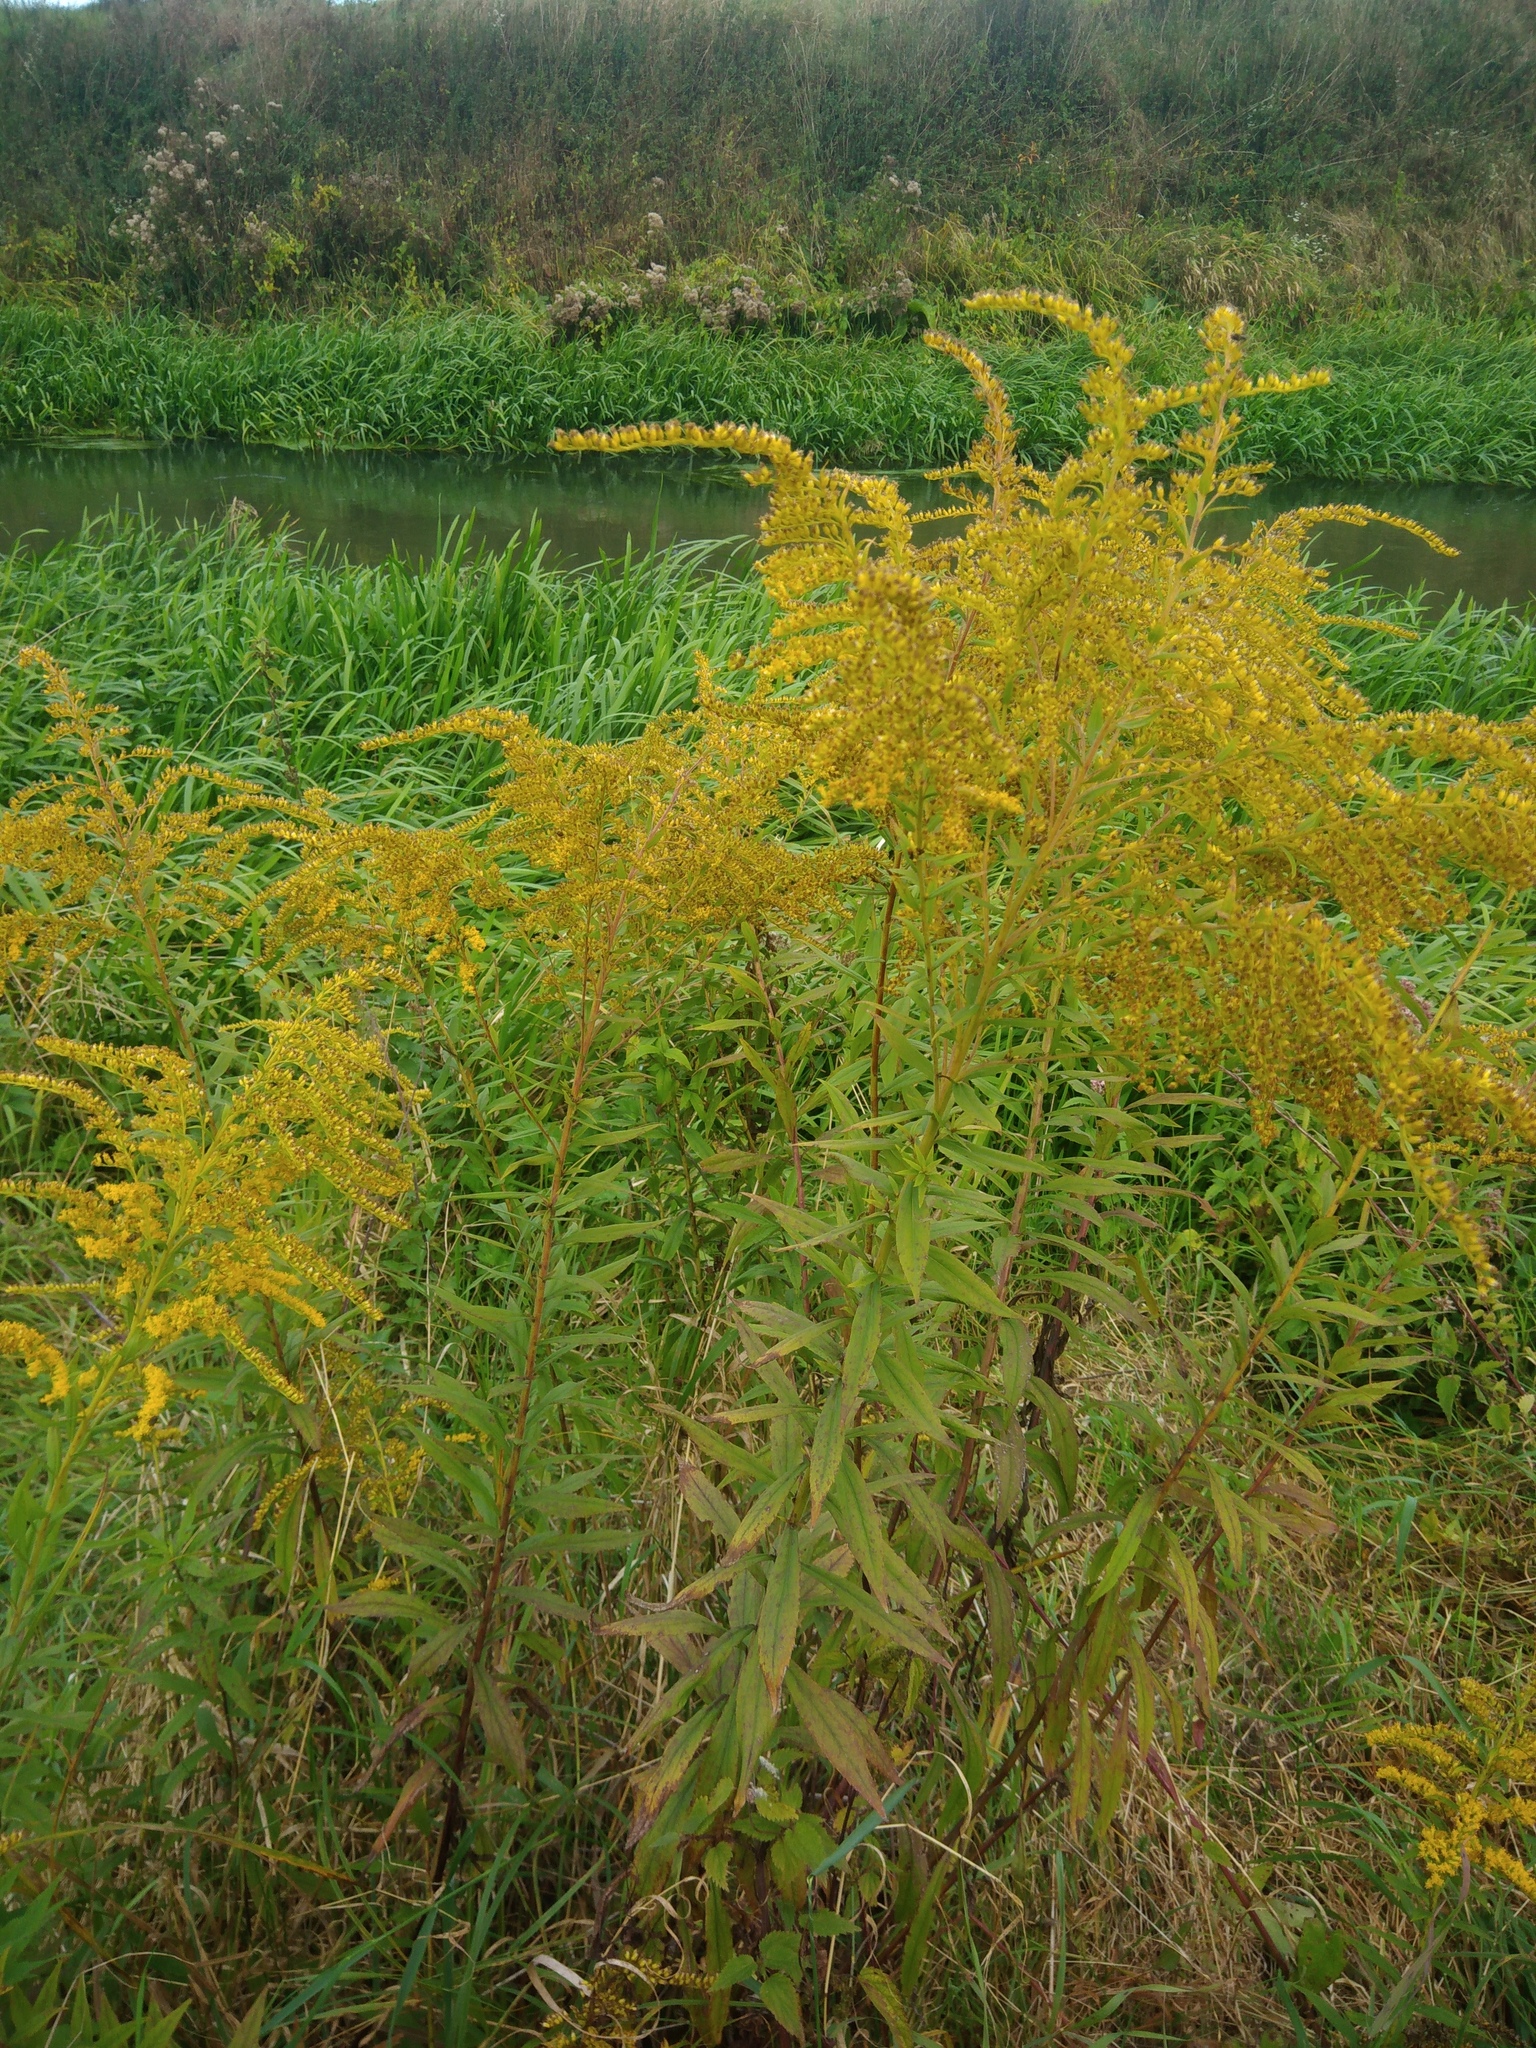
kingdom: Plantae
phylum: Tracheophyta
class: Magnoliopsida
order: Asterales
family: Asteraceae
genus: Solidago
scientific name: Solidago canadensis
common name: Canada goldenrod
